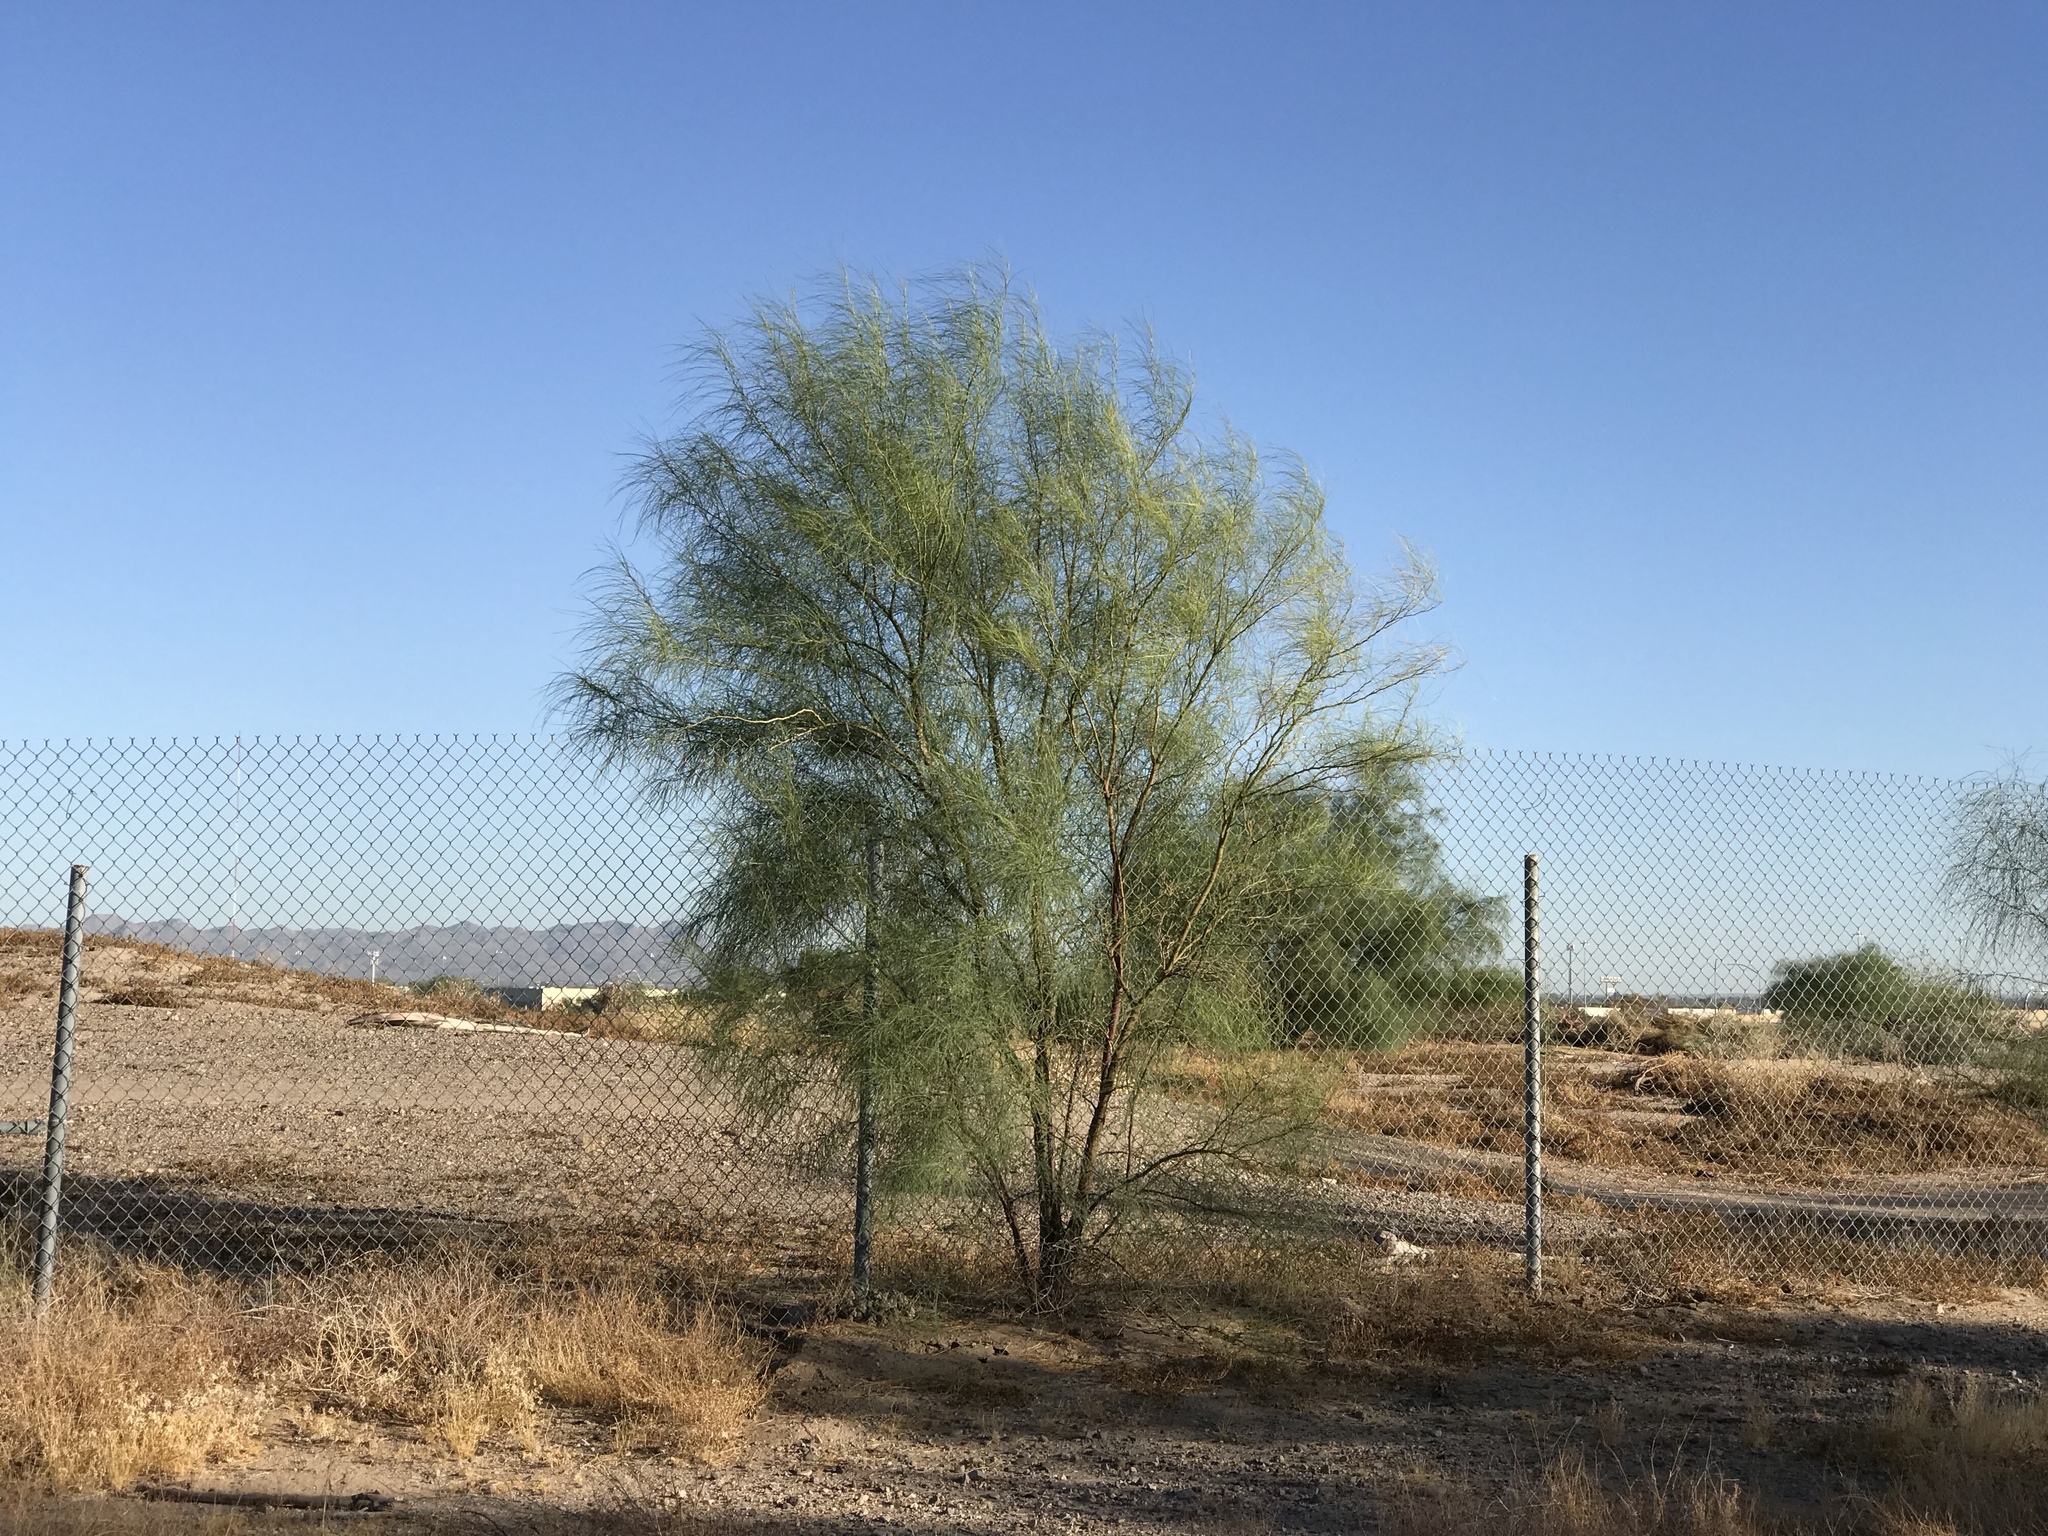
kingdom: Plantae
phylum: Tracheophyta
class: Magnoliopsida
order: Fabales
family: Fabaceae
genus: Parkinsonia
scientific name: Parkinsonia aculeata
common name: Jerusalem thorn
